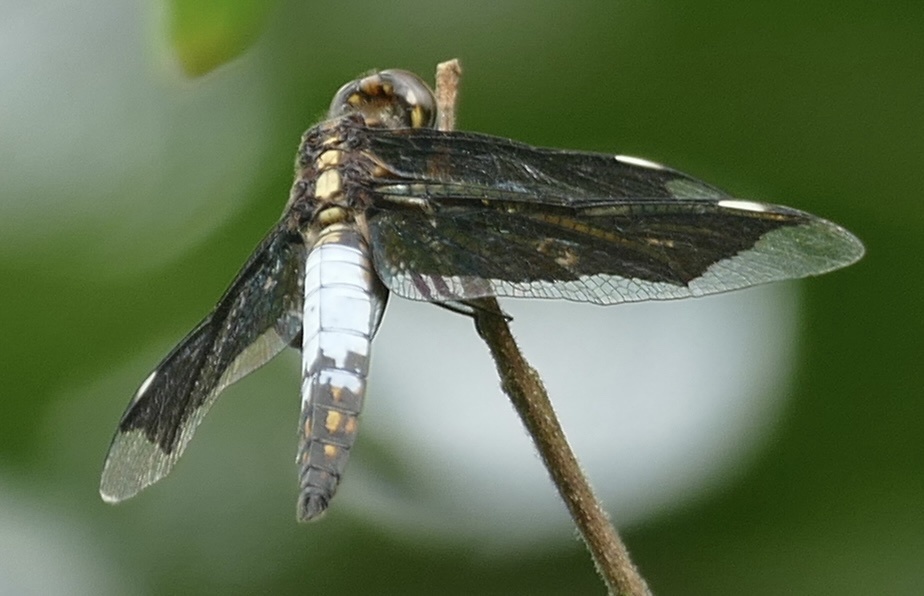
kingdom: Animalia
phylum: Arthropoda
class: Insecta
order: Odonata
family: Libellulidae
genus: Palpopleura
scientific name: Palpopleura lucia
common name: Lucia widow
